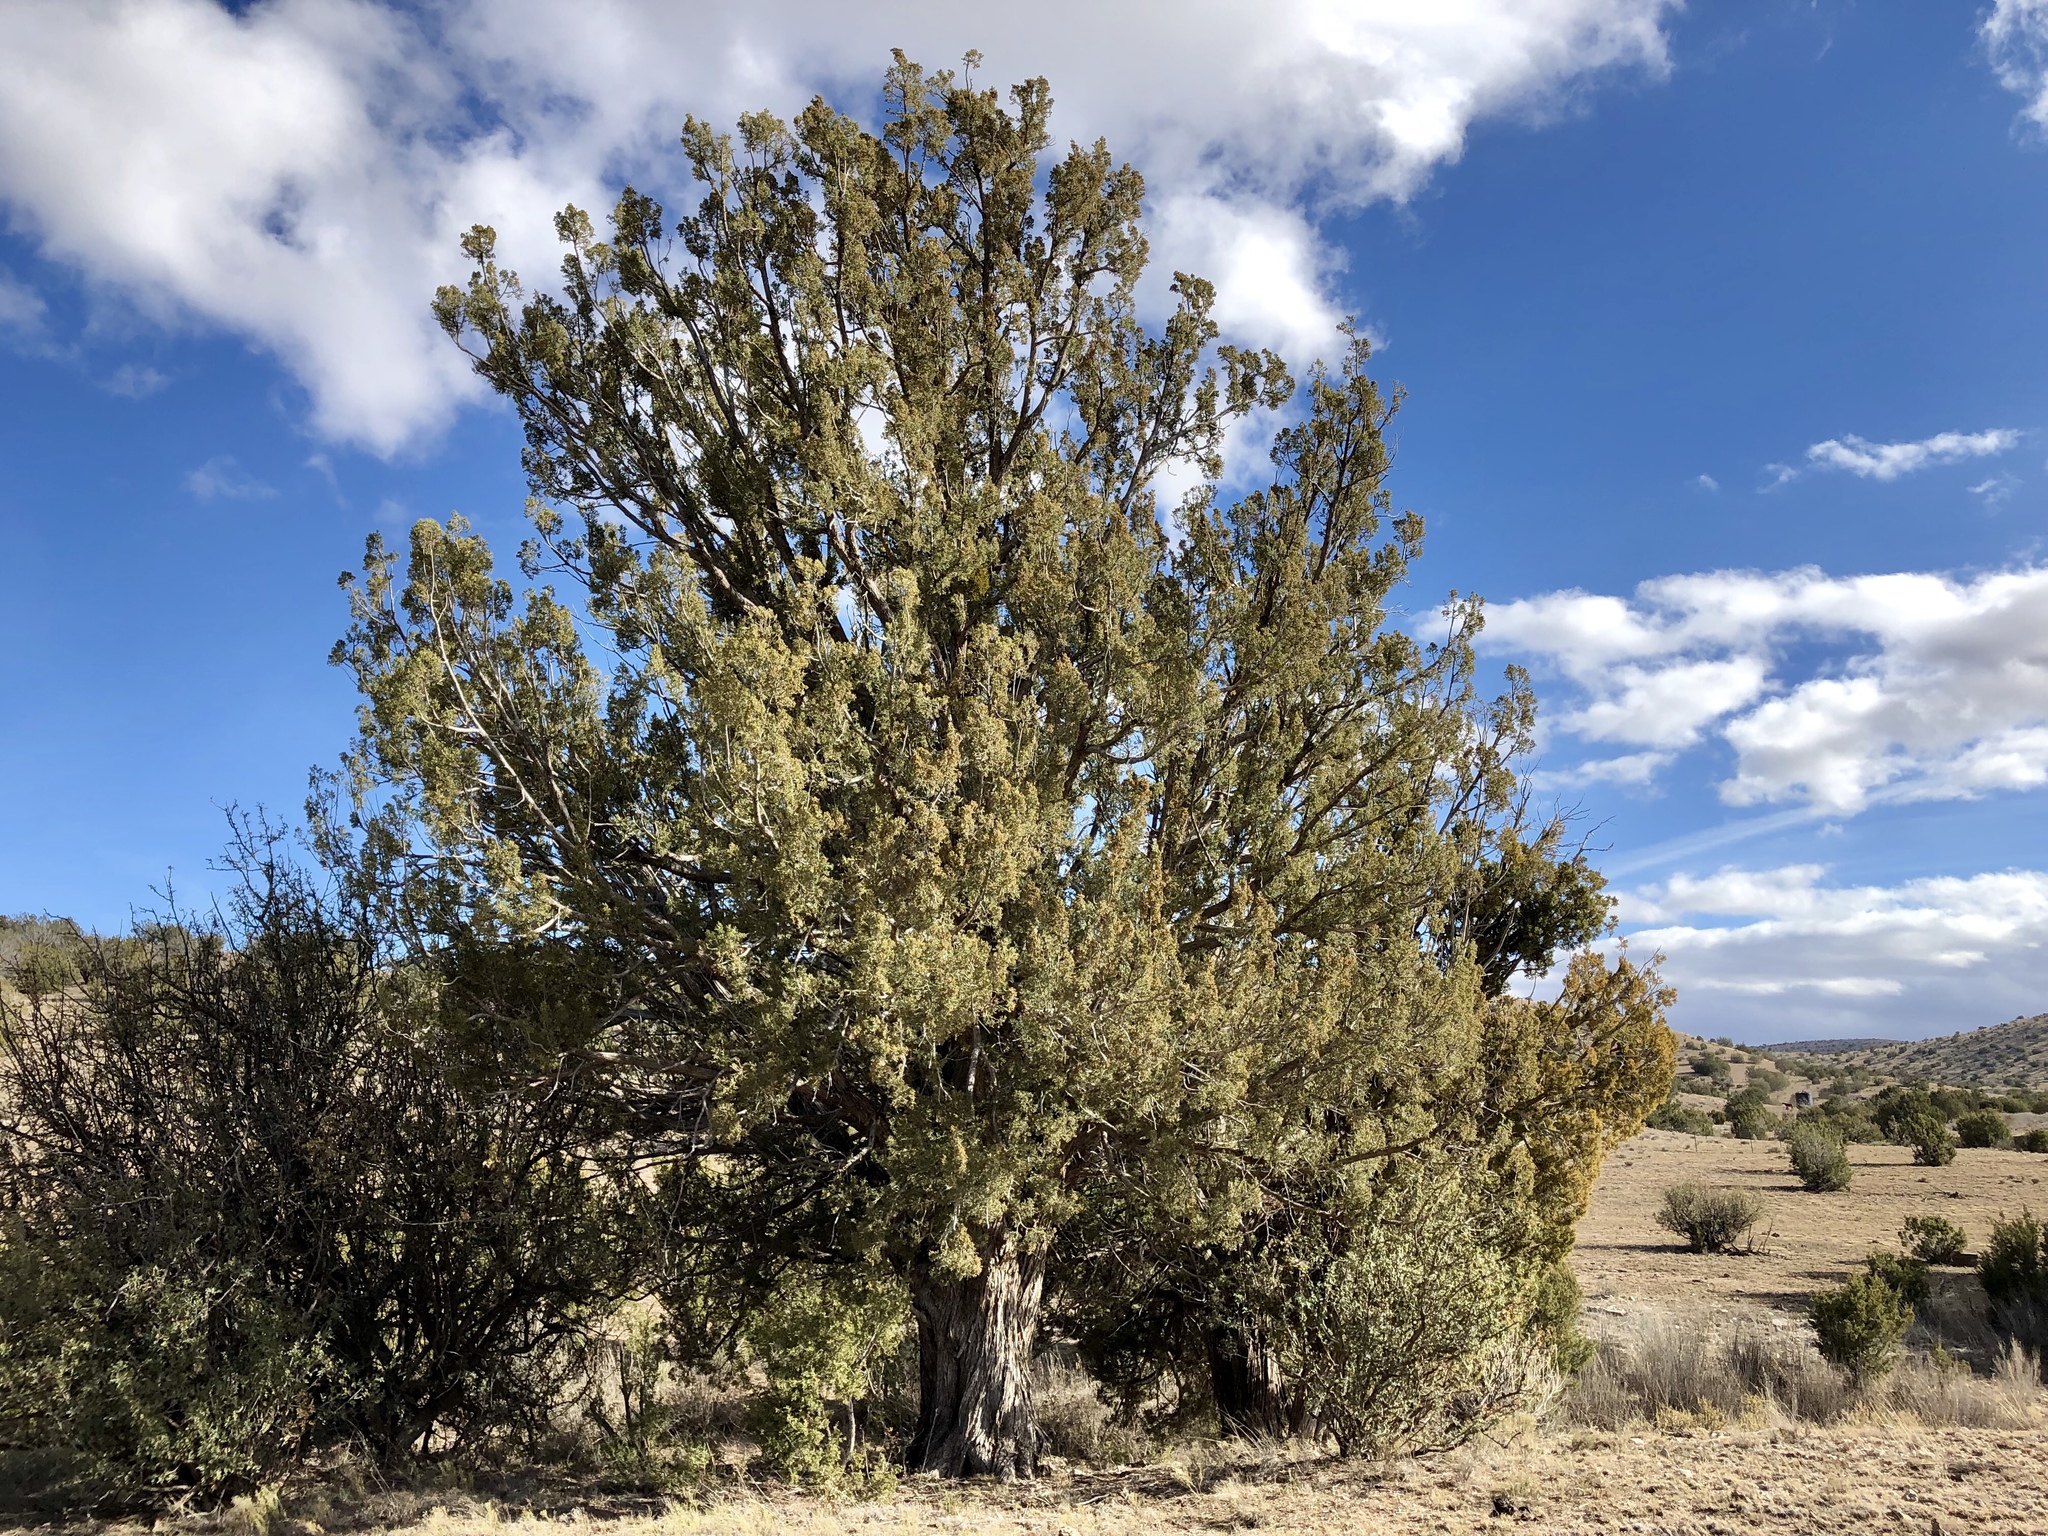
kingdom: Plantae
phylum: Tracheophyta
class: Pinopsida
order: Pinales
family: Cupressaceae
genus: Juniperus
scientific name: Juniperus monosperma
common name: One-seed juniper
